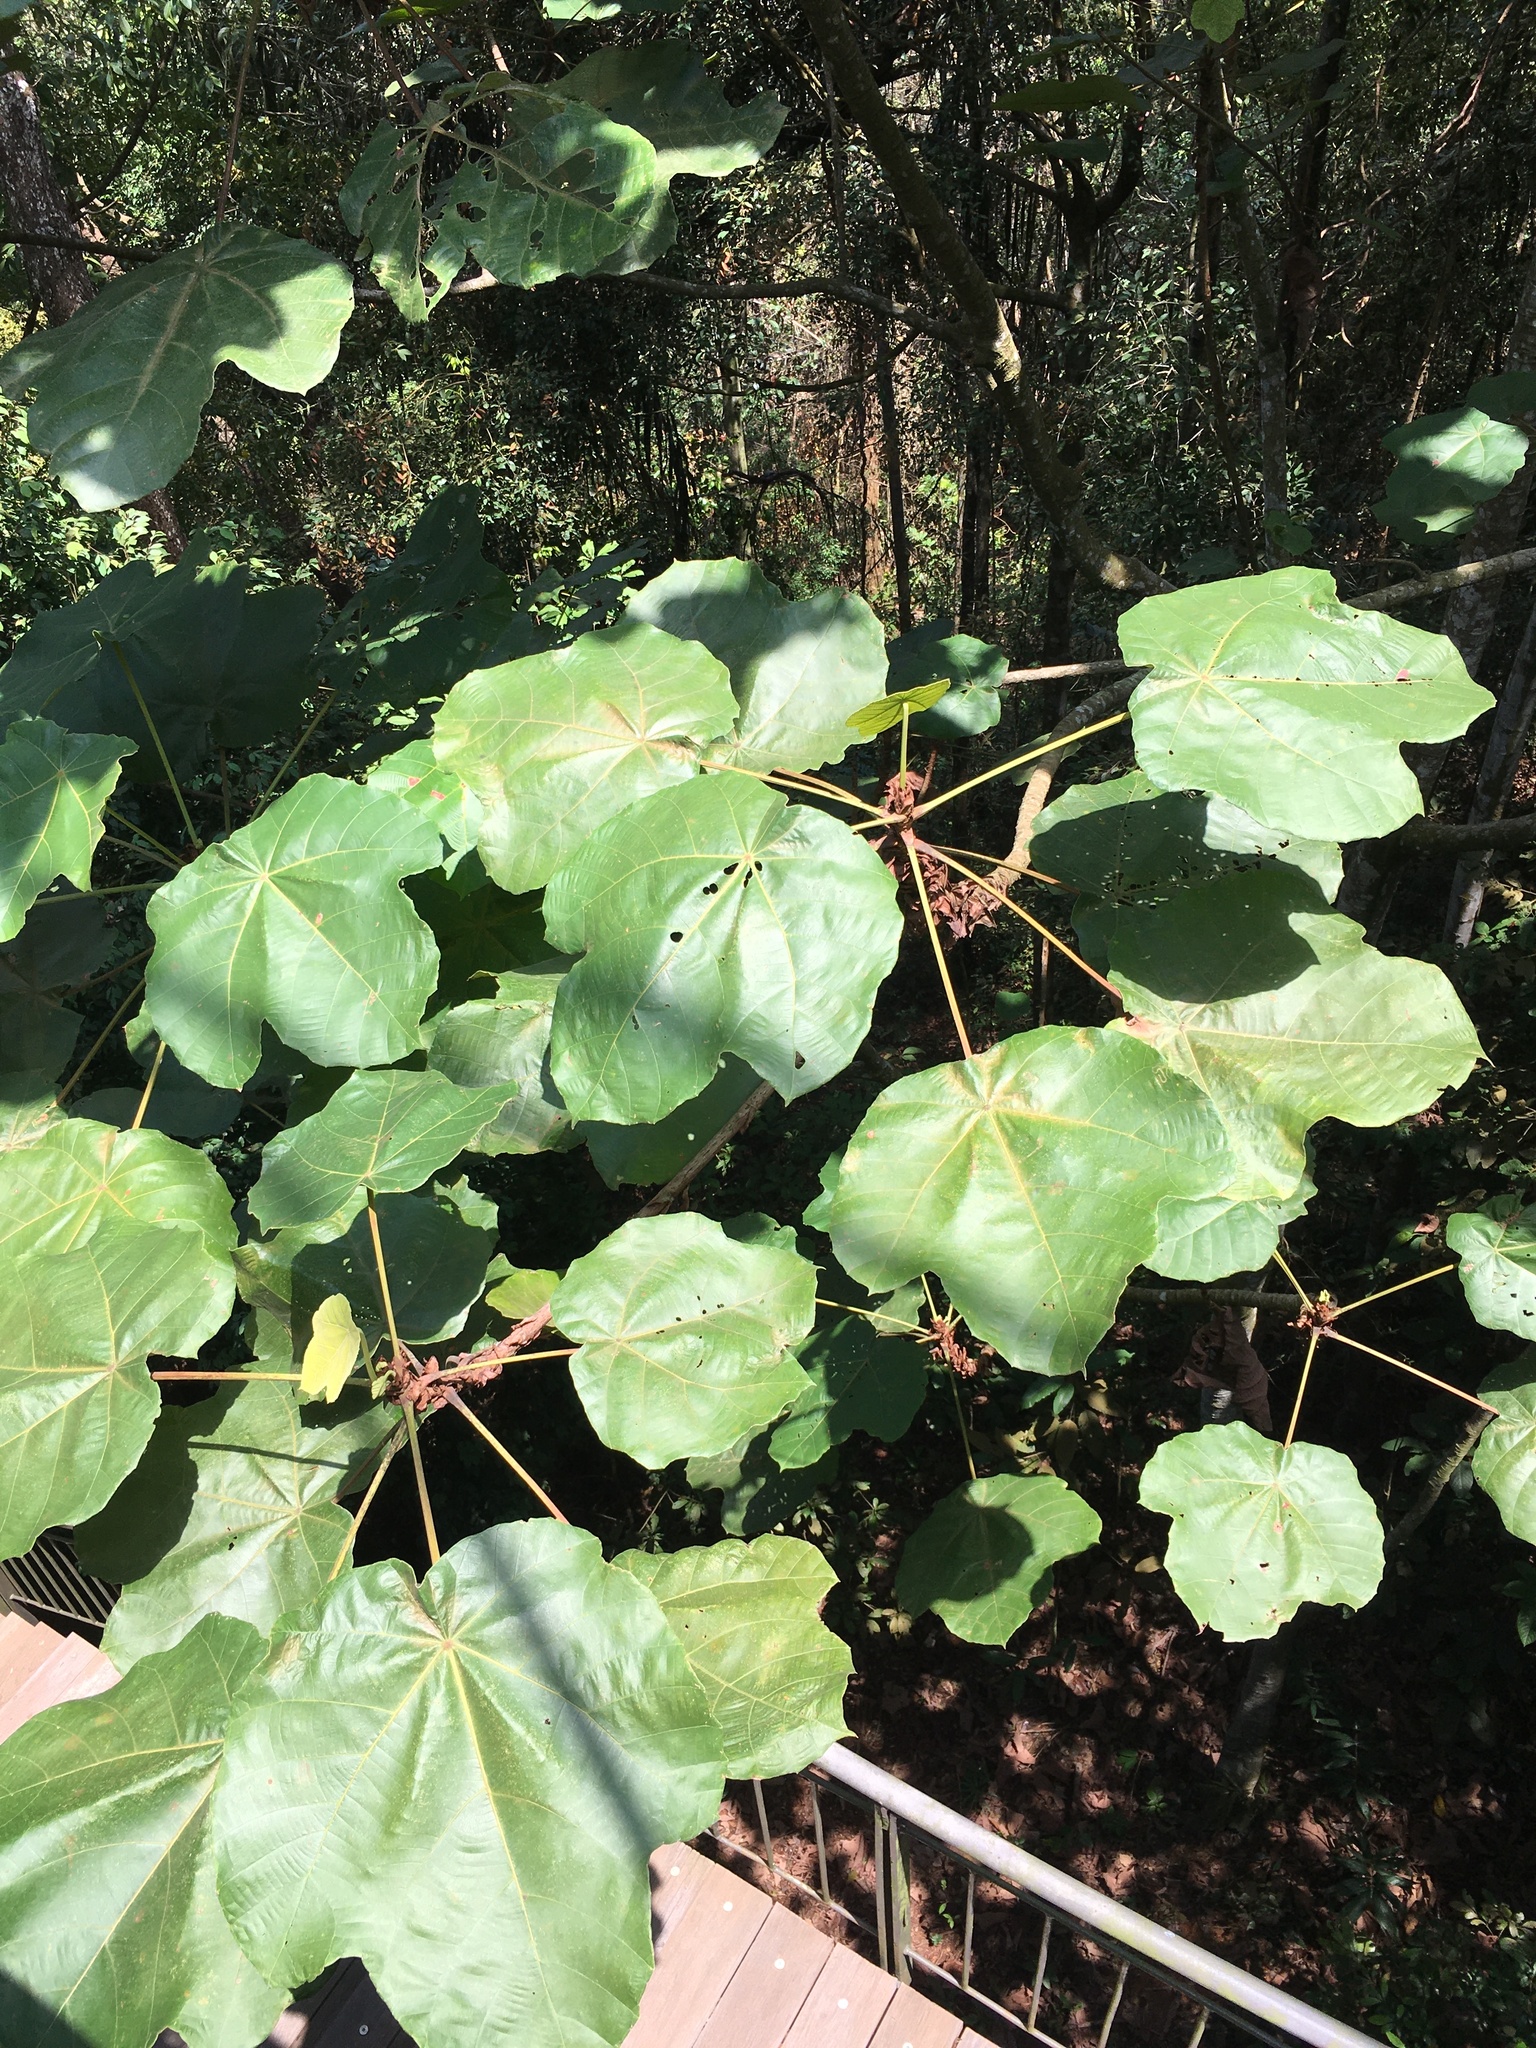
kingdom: Plantae
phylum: Tracheophyta
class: Magnoliopsida
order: Malpighiales
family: Euphorbiaceae
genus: Macaranga
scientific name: Macaranga gigantea
